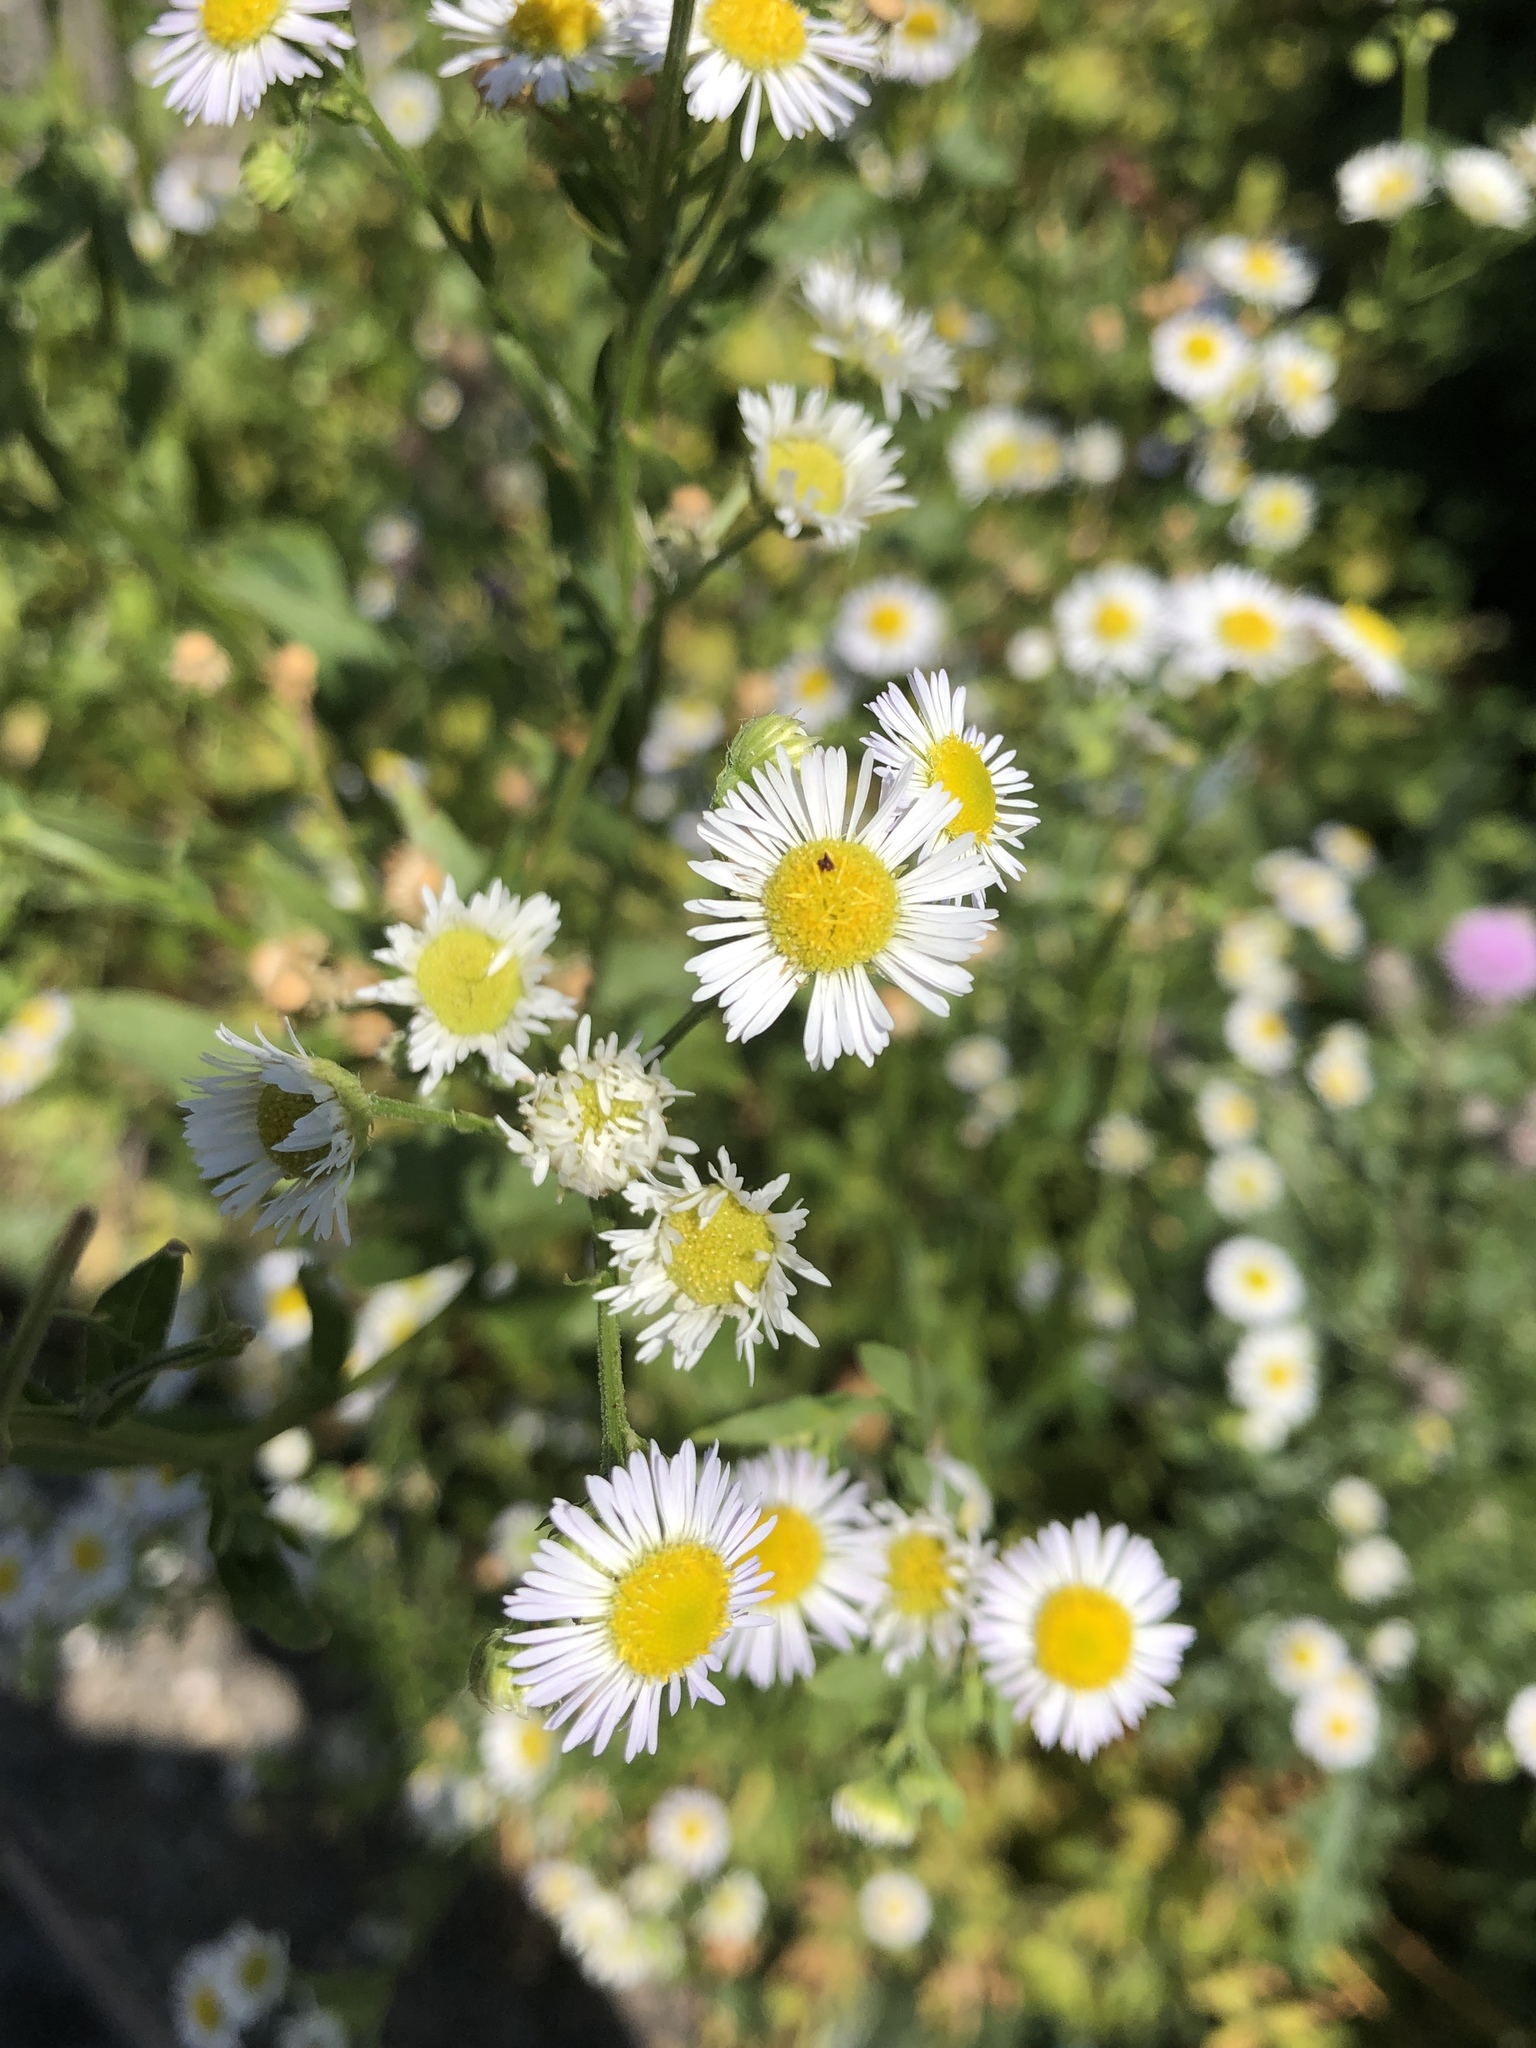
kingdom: Plantae
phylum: Tracheophyta
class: Magnoliopsida
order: Asterales
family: Asteraceae
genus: Erigeron
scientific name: Erigeron annuus
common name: Tall fleabane
